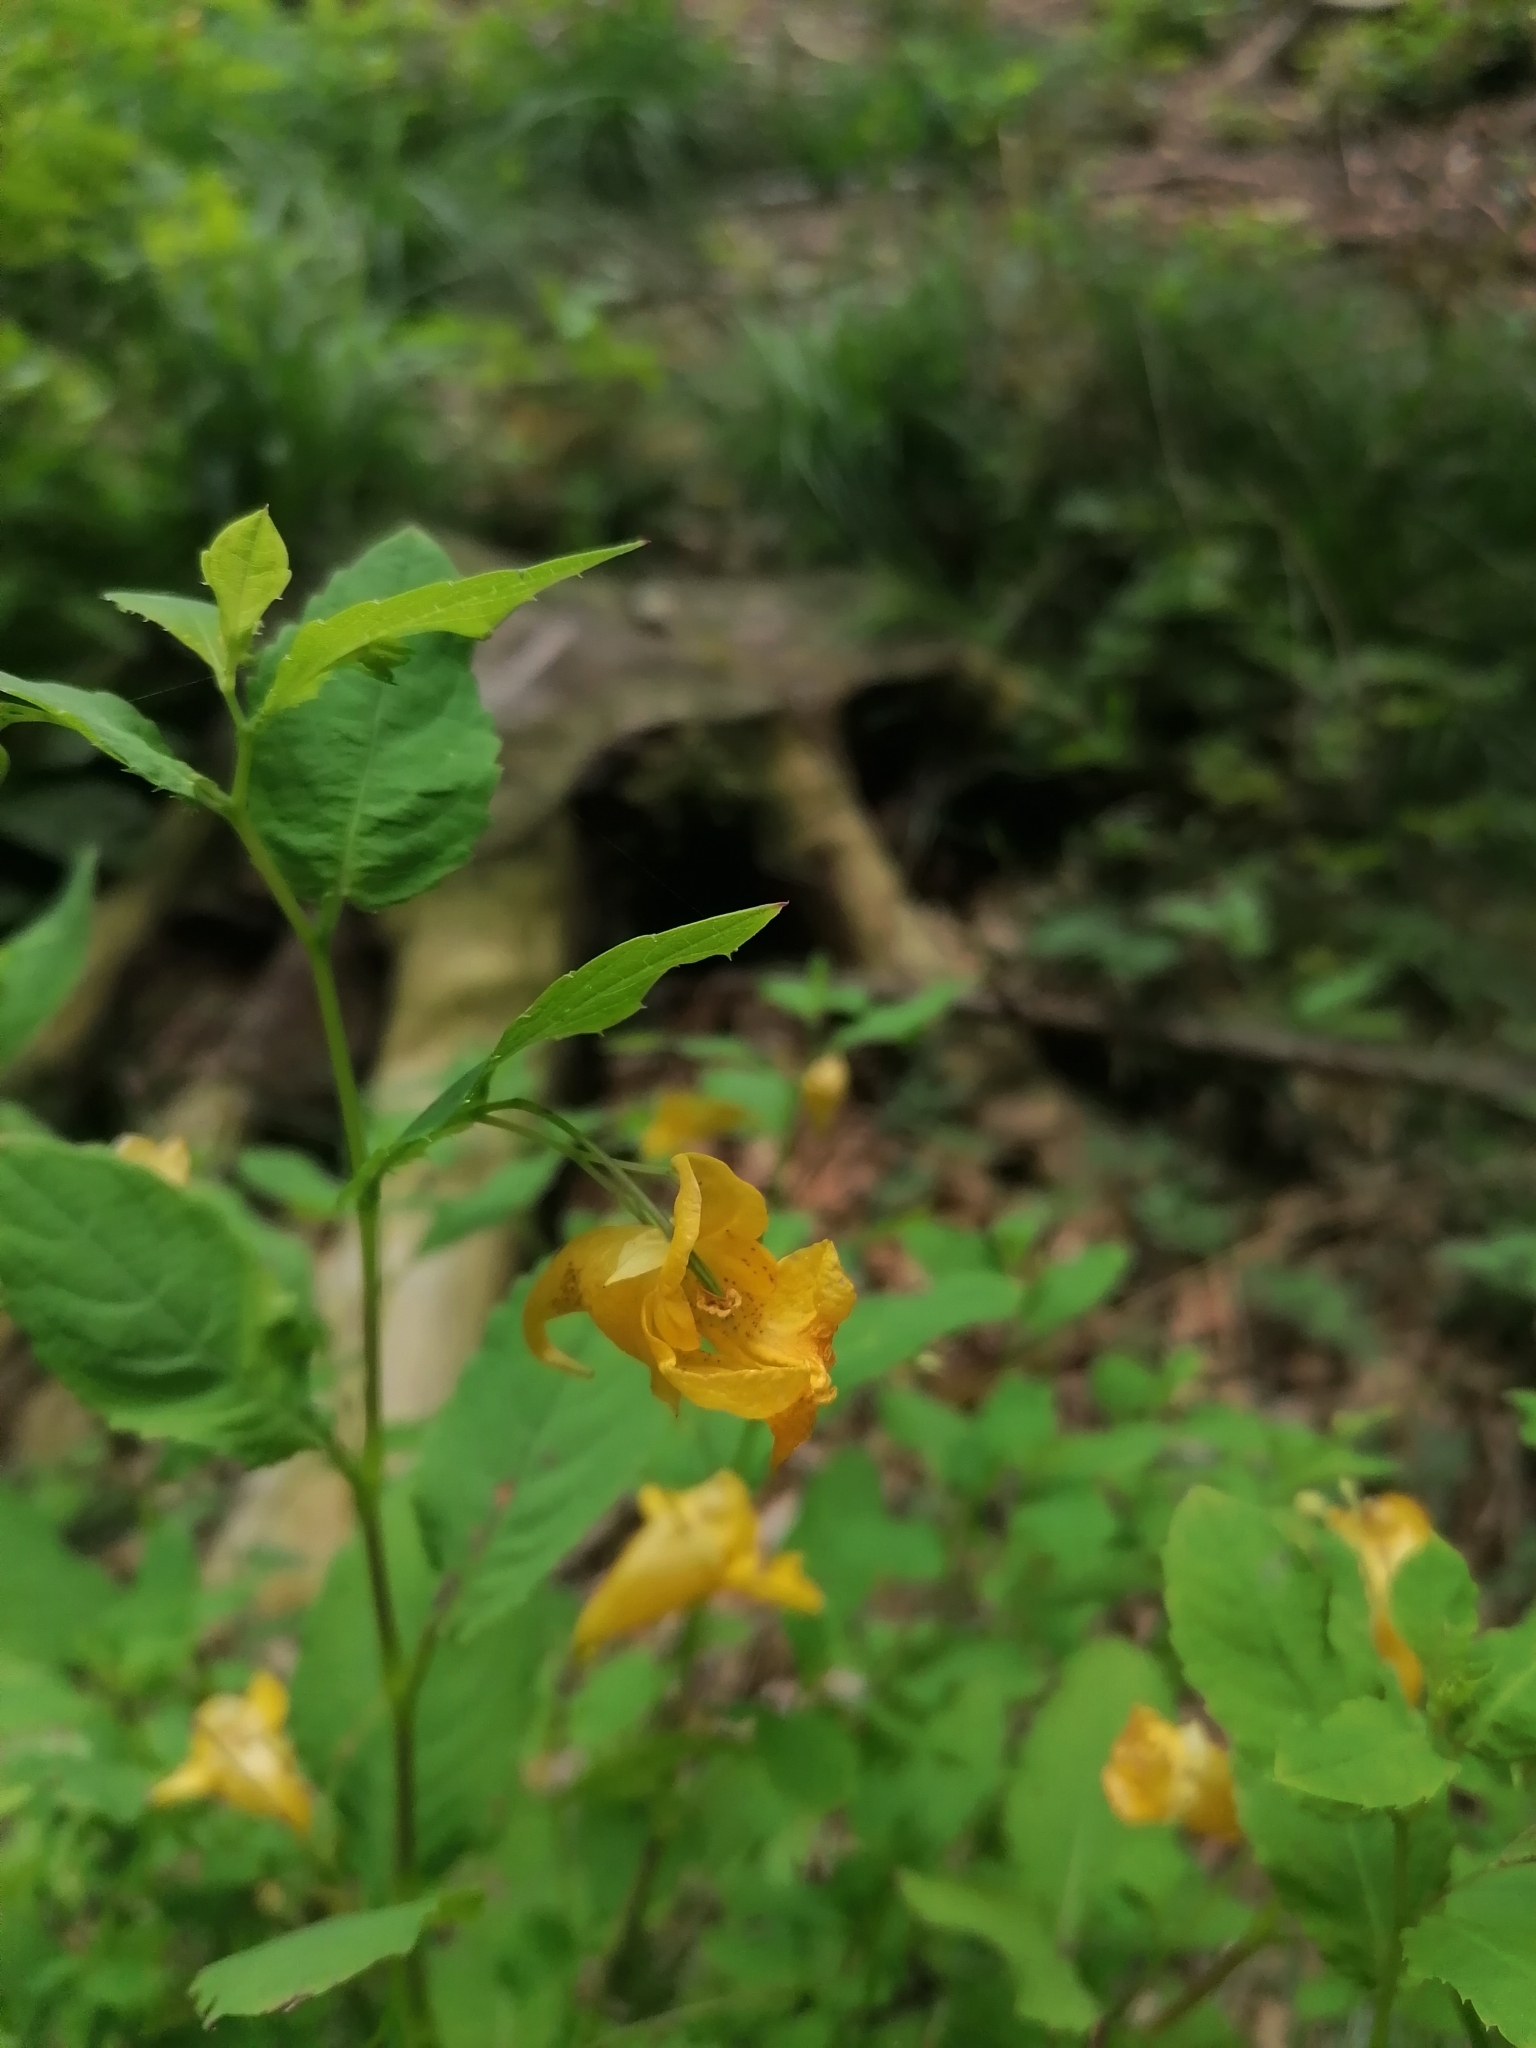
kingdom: Plantae
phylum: Tracheophyta
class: Magnoliopsida
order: Ericales
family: Balsaminaceae
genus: Impatiens
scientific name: Impatiens noli-tangere
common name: Touch-me-not balsam
